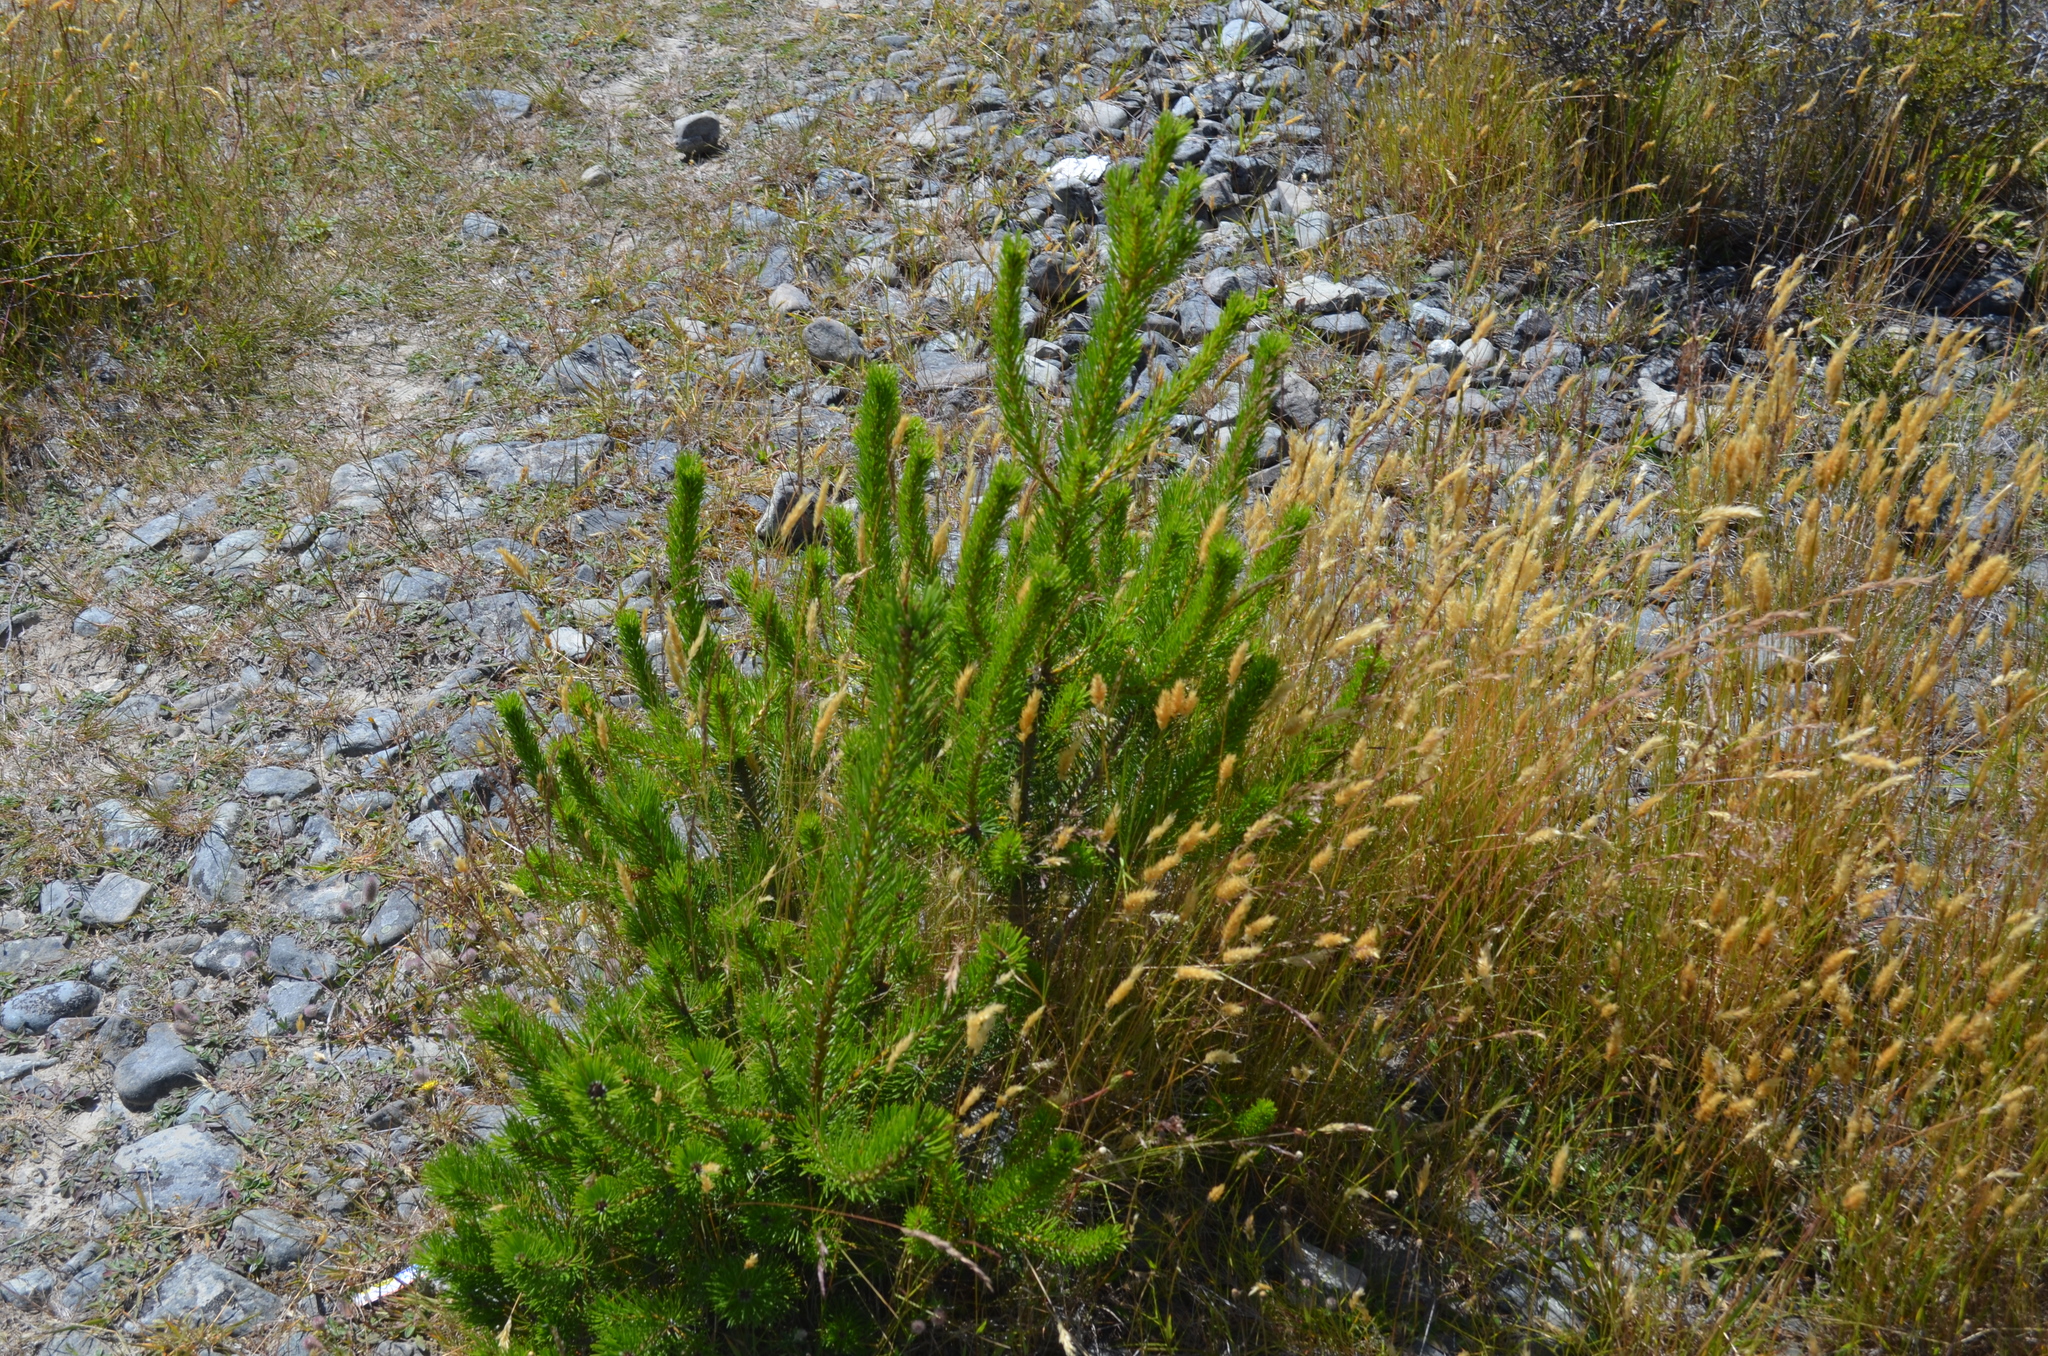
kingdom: Plantae
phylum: Tracheophyta
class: Pinopsida
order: Pinales
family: Pinaceae
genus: Pinus
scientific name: Pinus contorta
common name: Lodgepole pine
